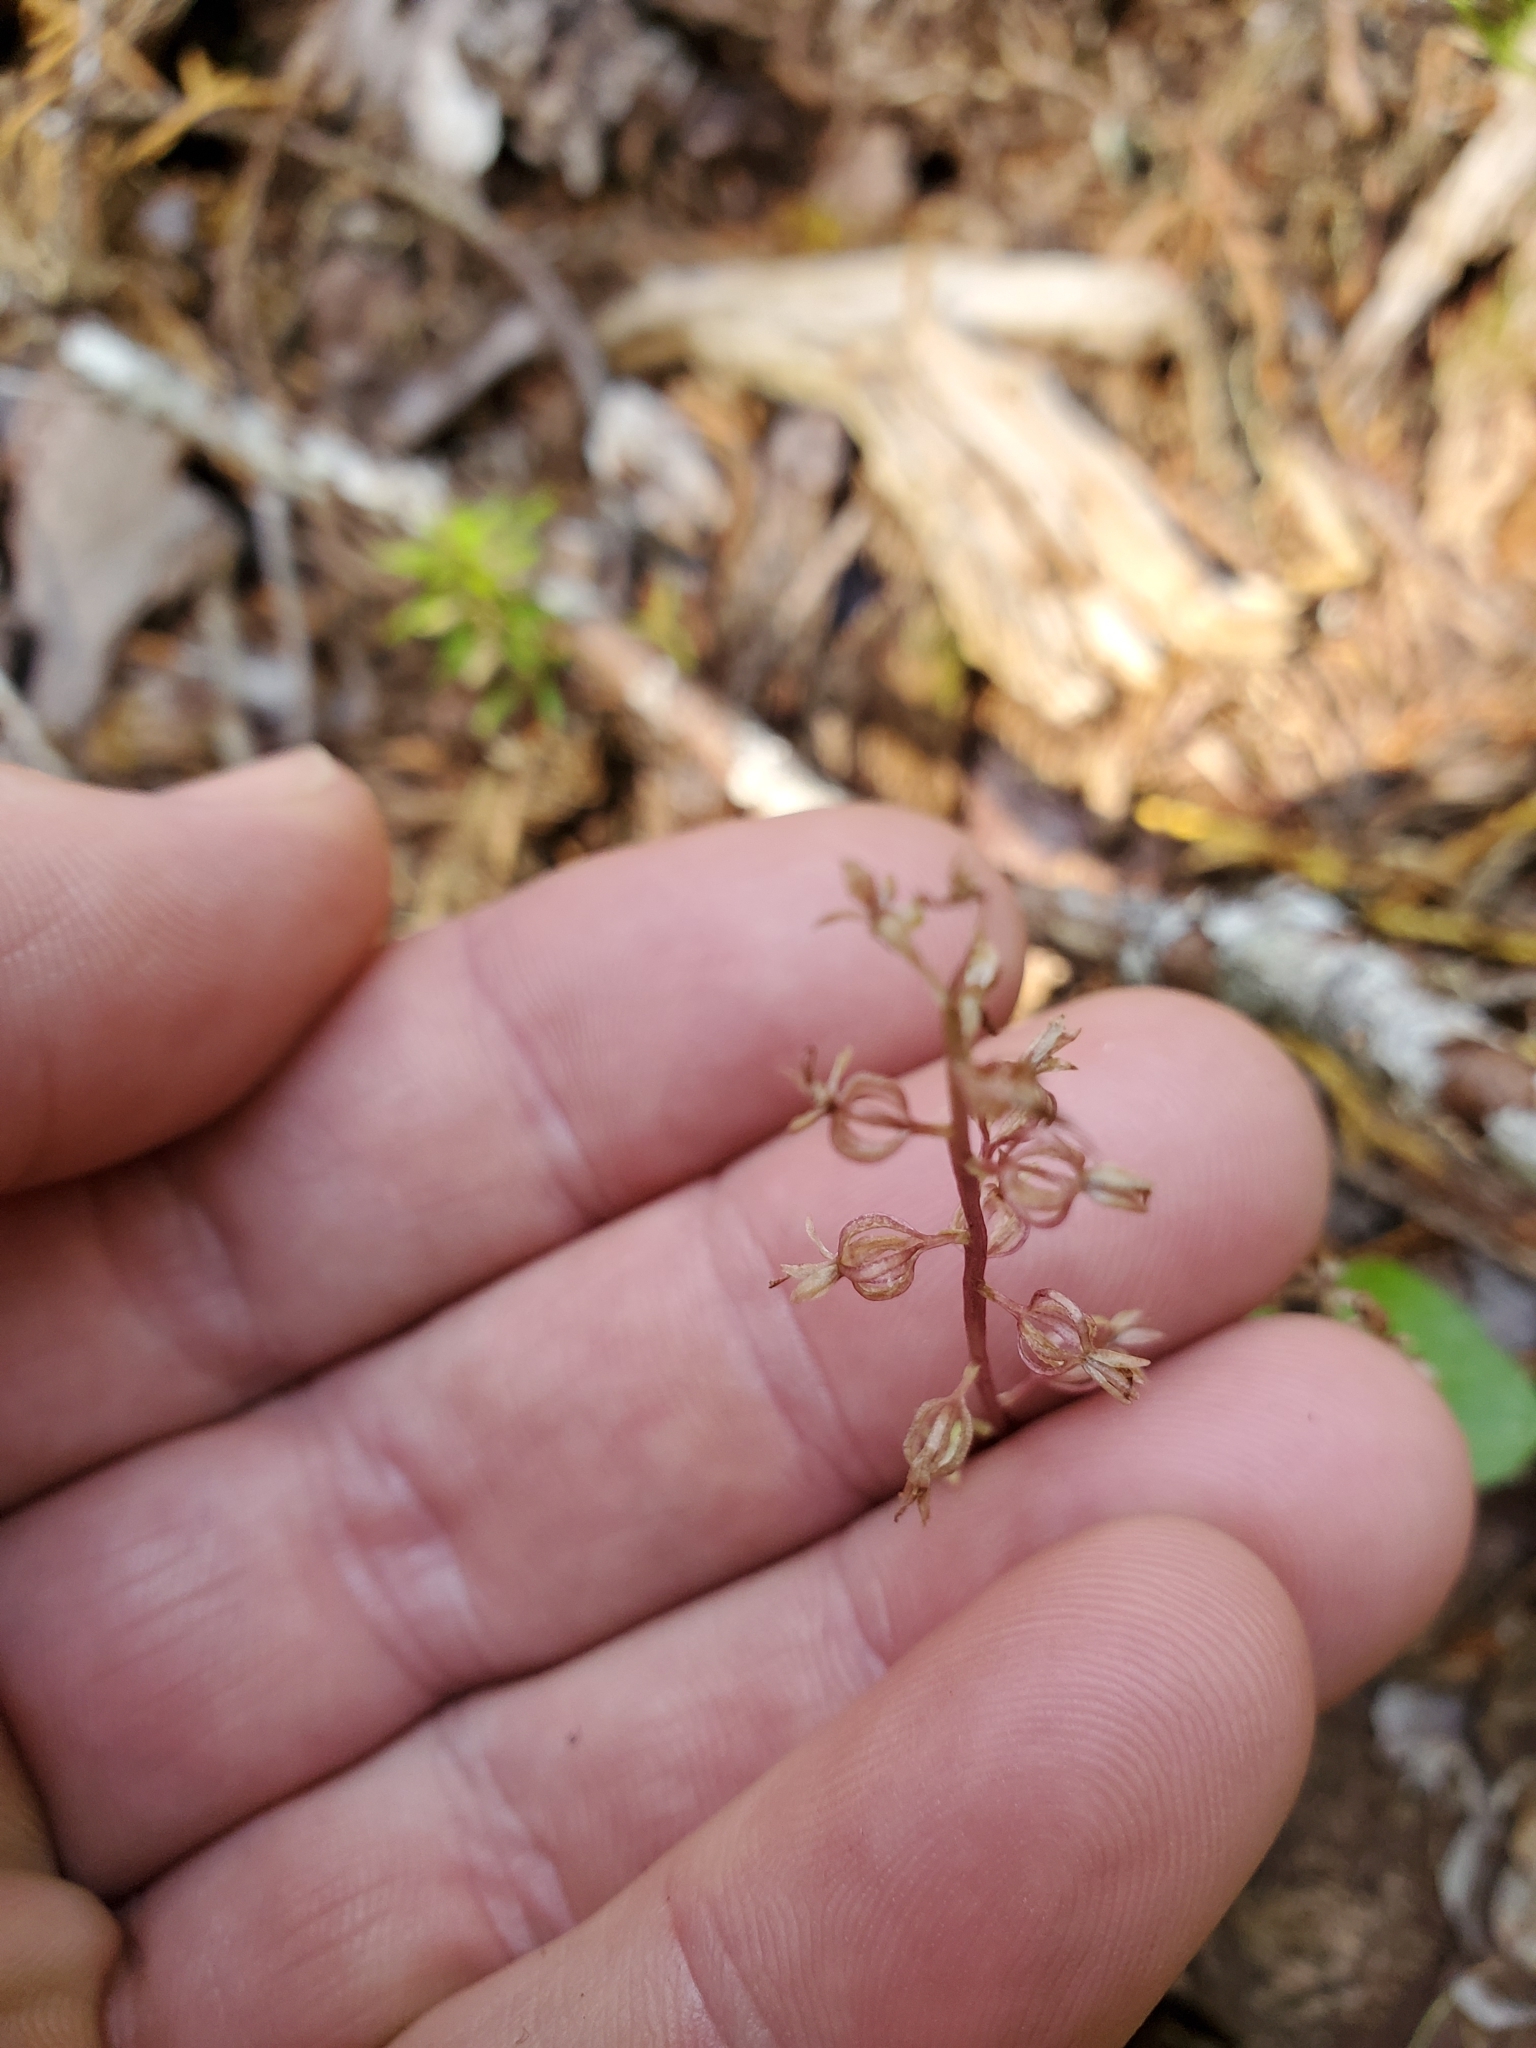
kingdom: Plantae
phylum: Tracheophyta
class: Liliopsida
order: Asparagales
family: Orchidaceae
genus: Neottia
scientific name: Neottia cordata
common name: Lesser twayblade
